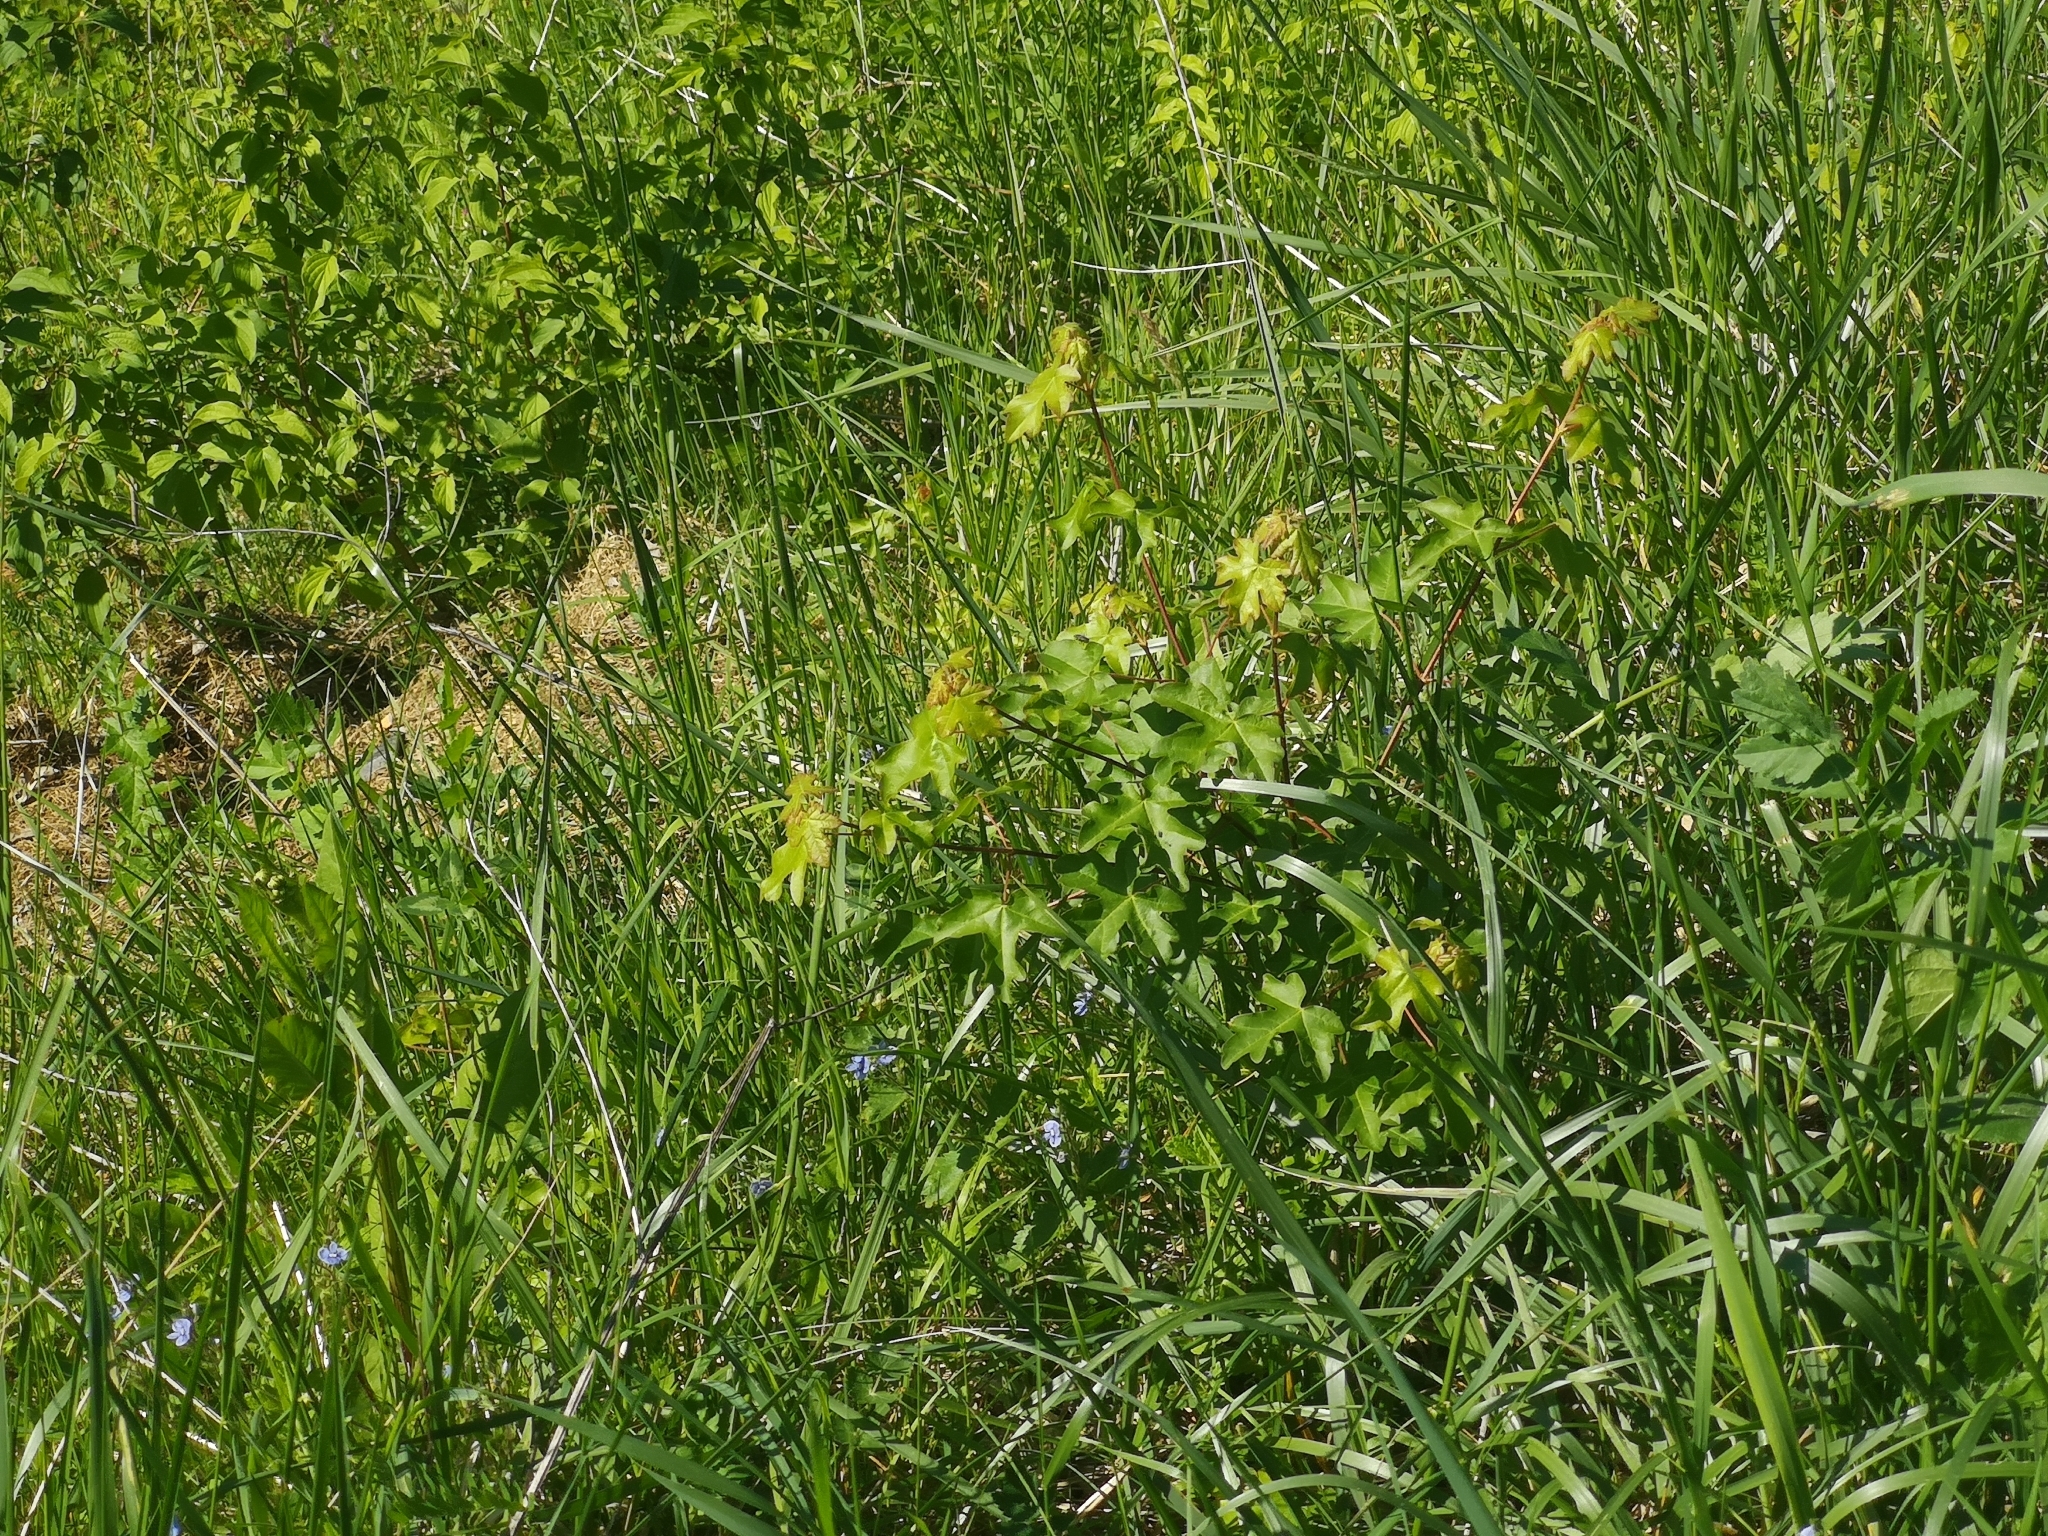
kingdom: Plantae
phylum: Tracheophyta
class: Magnoliopsida
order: Sapindales
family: Sapindaceae
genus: Acer
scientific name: Acer campestre
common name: Field maple
